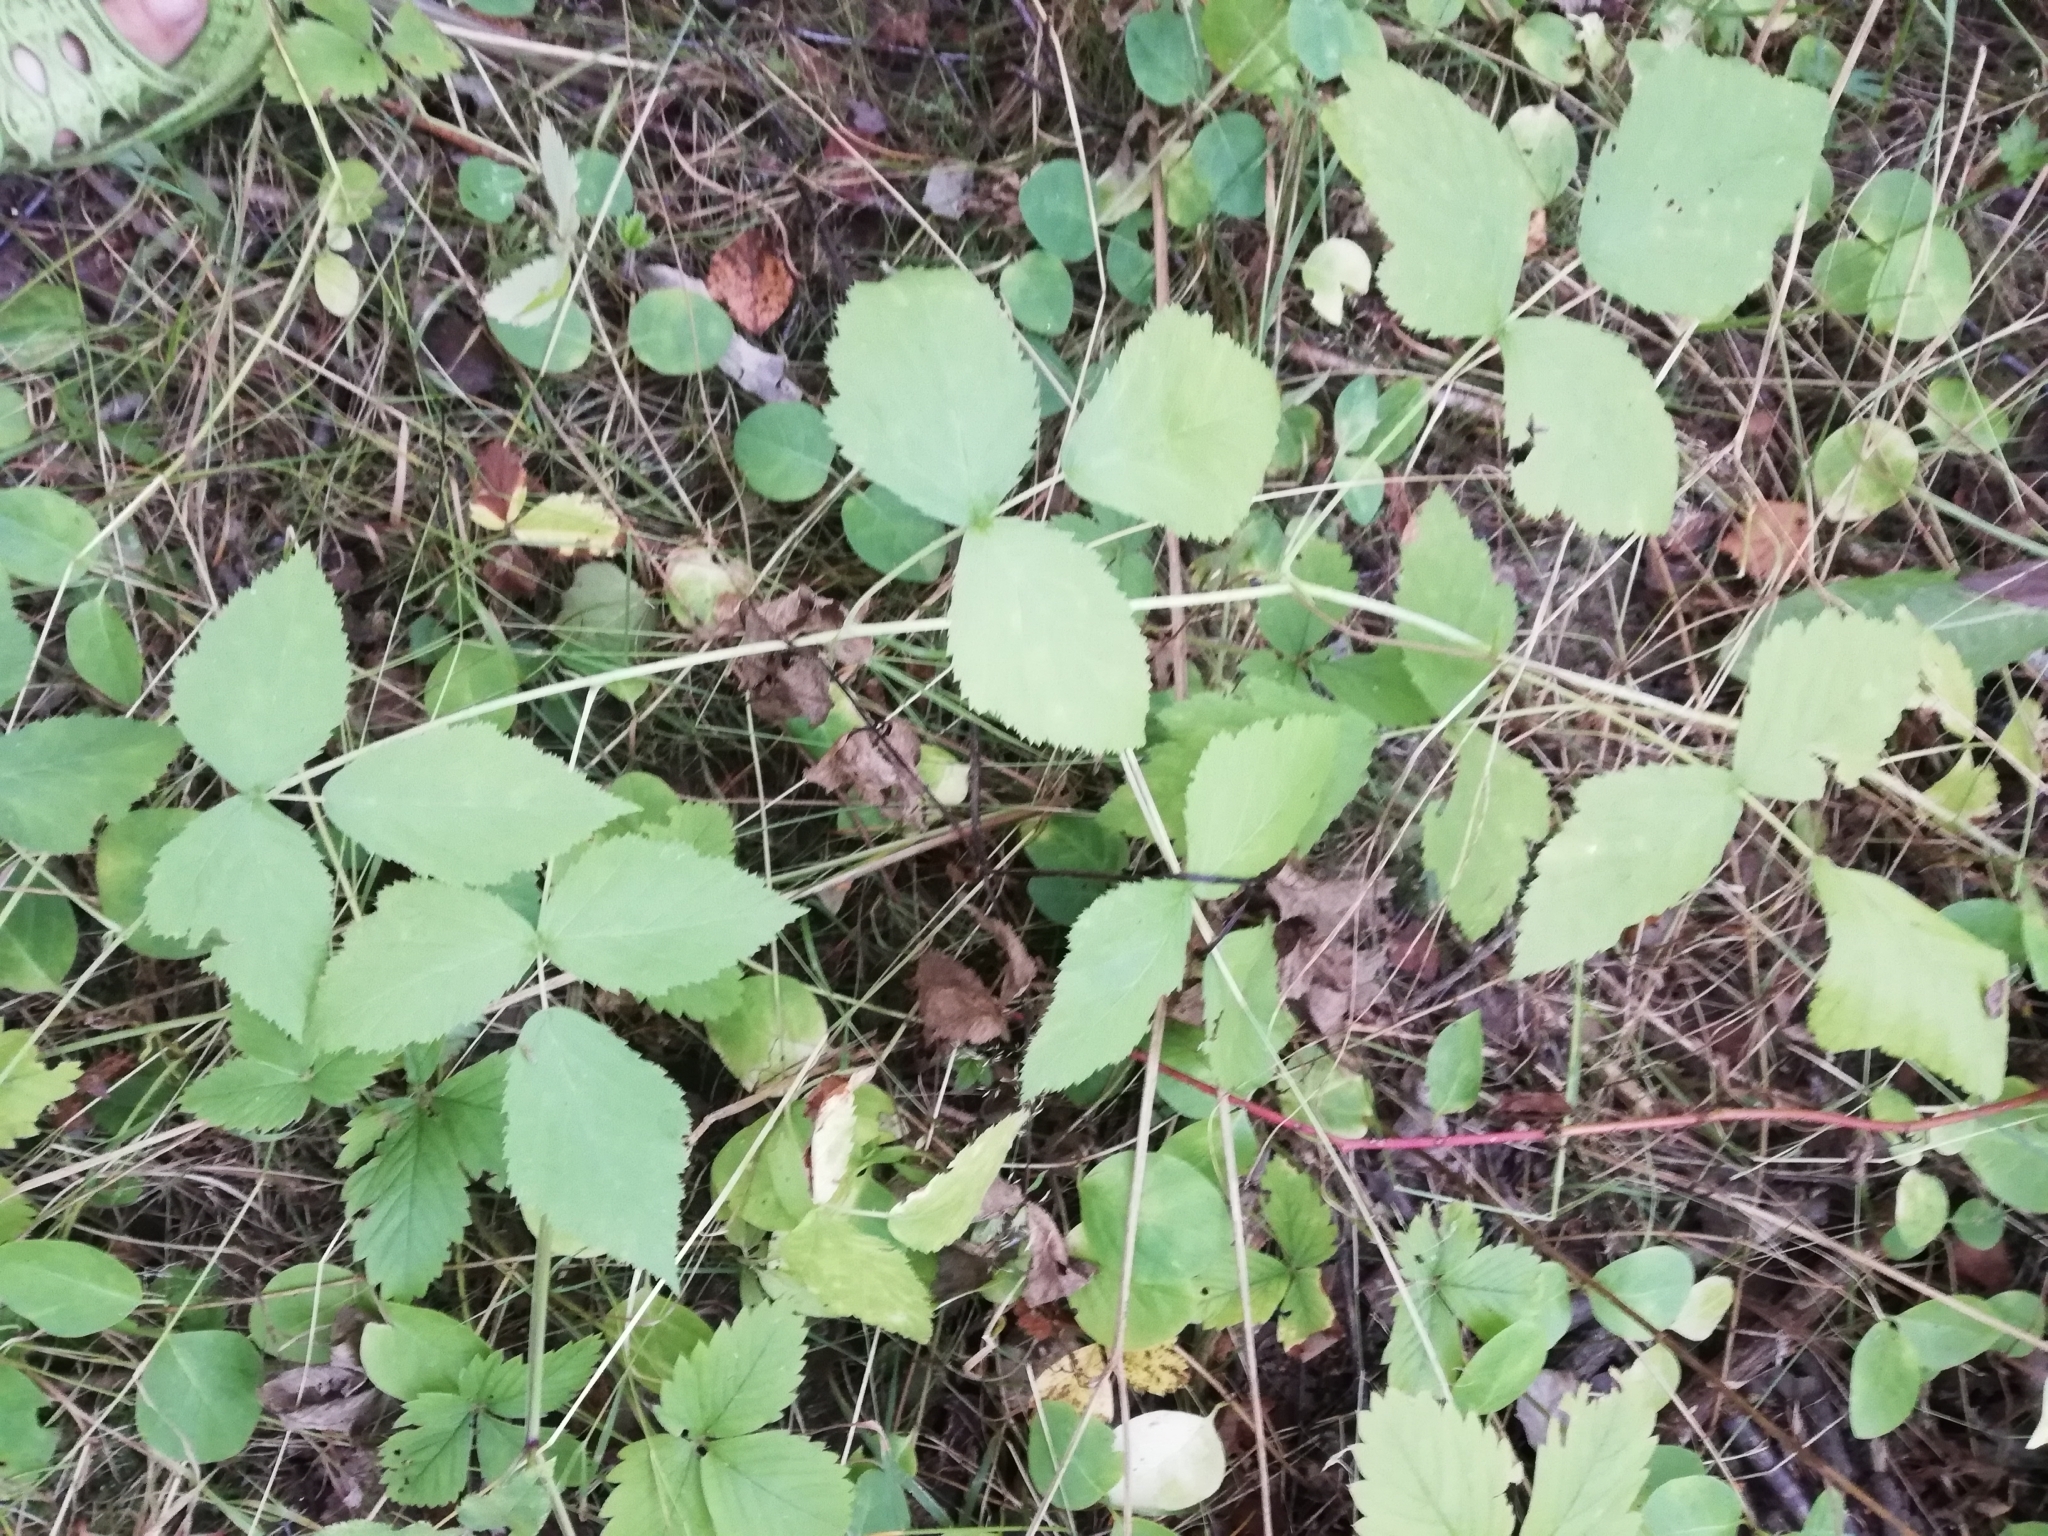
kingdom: Plantae
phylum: Tracheophyta
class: Magnoliopsida
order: Rosales
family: Rosaceae
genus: Rubus
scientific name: Rubus caesius
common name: Dewberry
